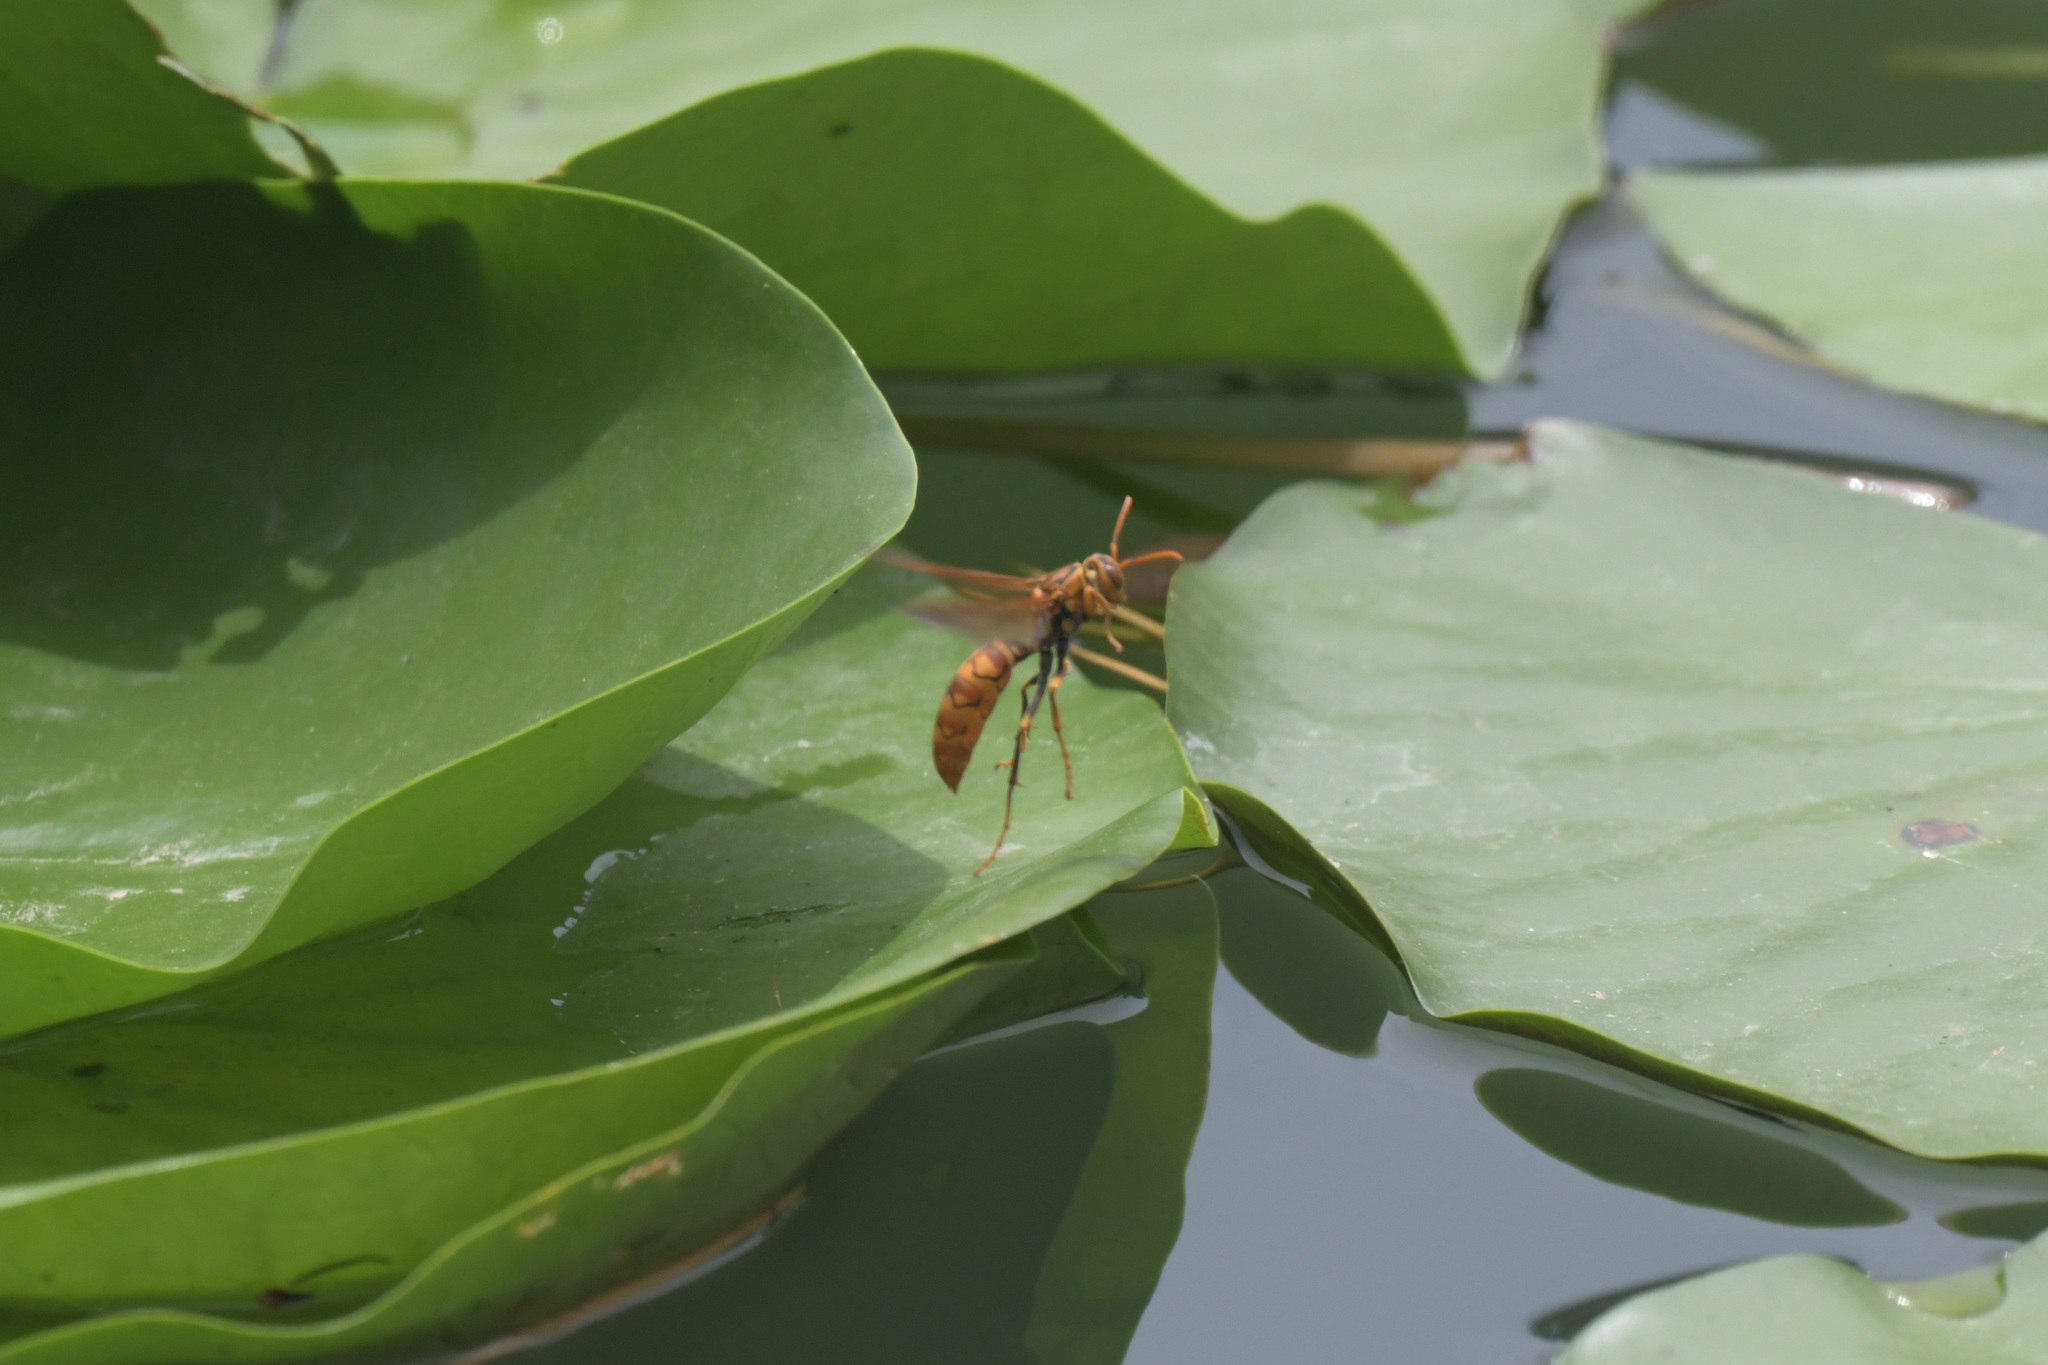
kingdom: Animalia
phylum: Arthropoda
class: Insecta
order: Hymenoptera
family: Eumenidae
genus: Polistes
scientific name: Polistes jokahamae
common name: Paper wasp
